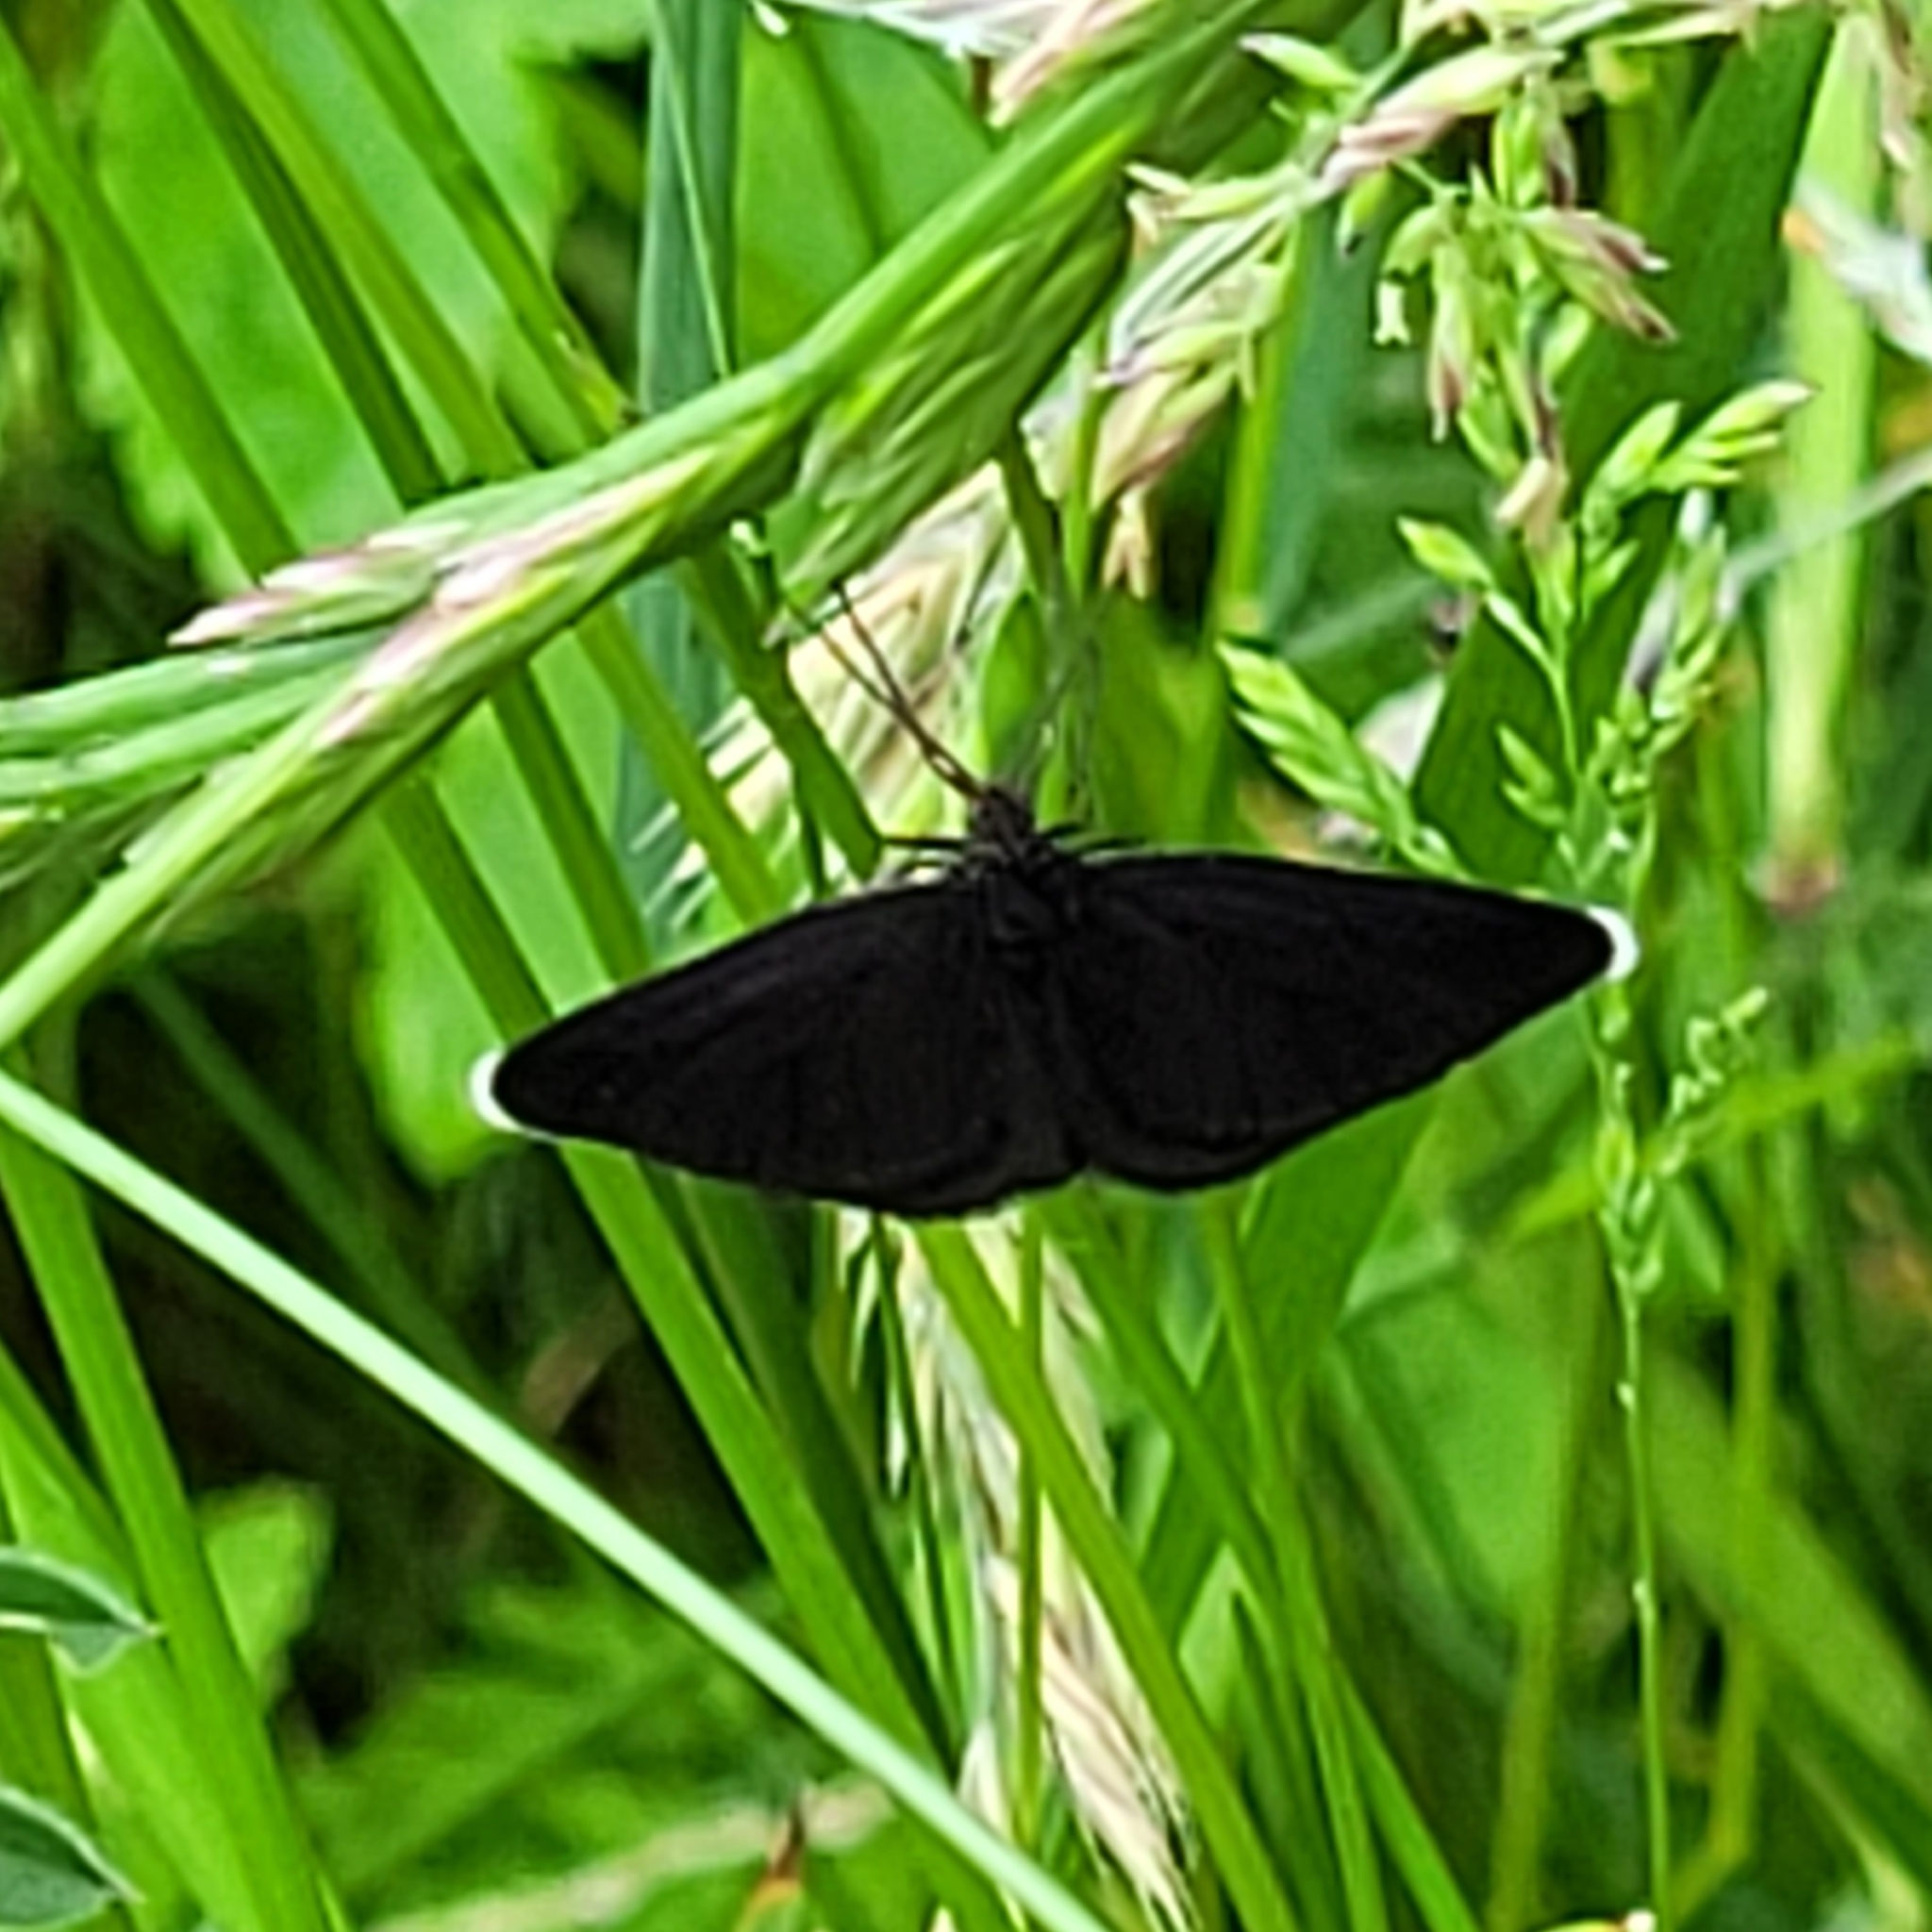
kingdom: Animalia
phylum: Arthropoda
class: Insecta
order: Lepidoptera
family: Geometridae
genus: Odezia
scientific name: Odezia atrata
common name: Chimney sweeper
